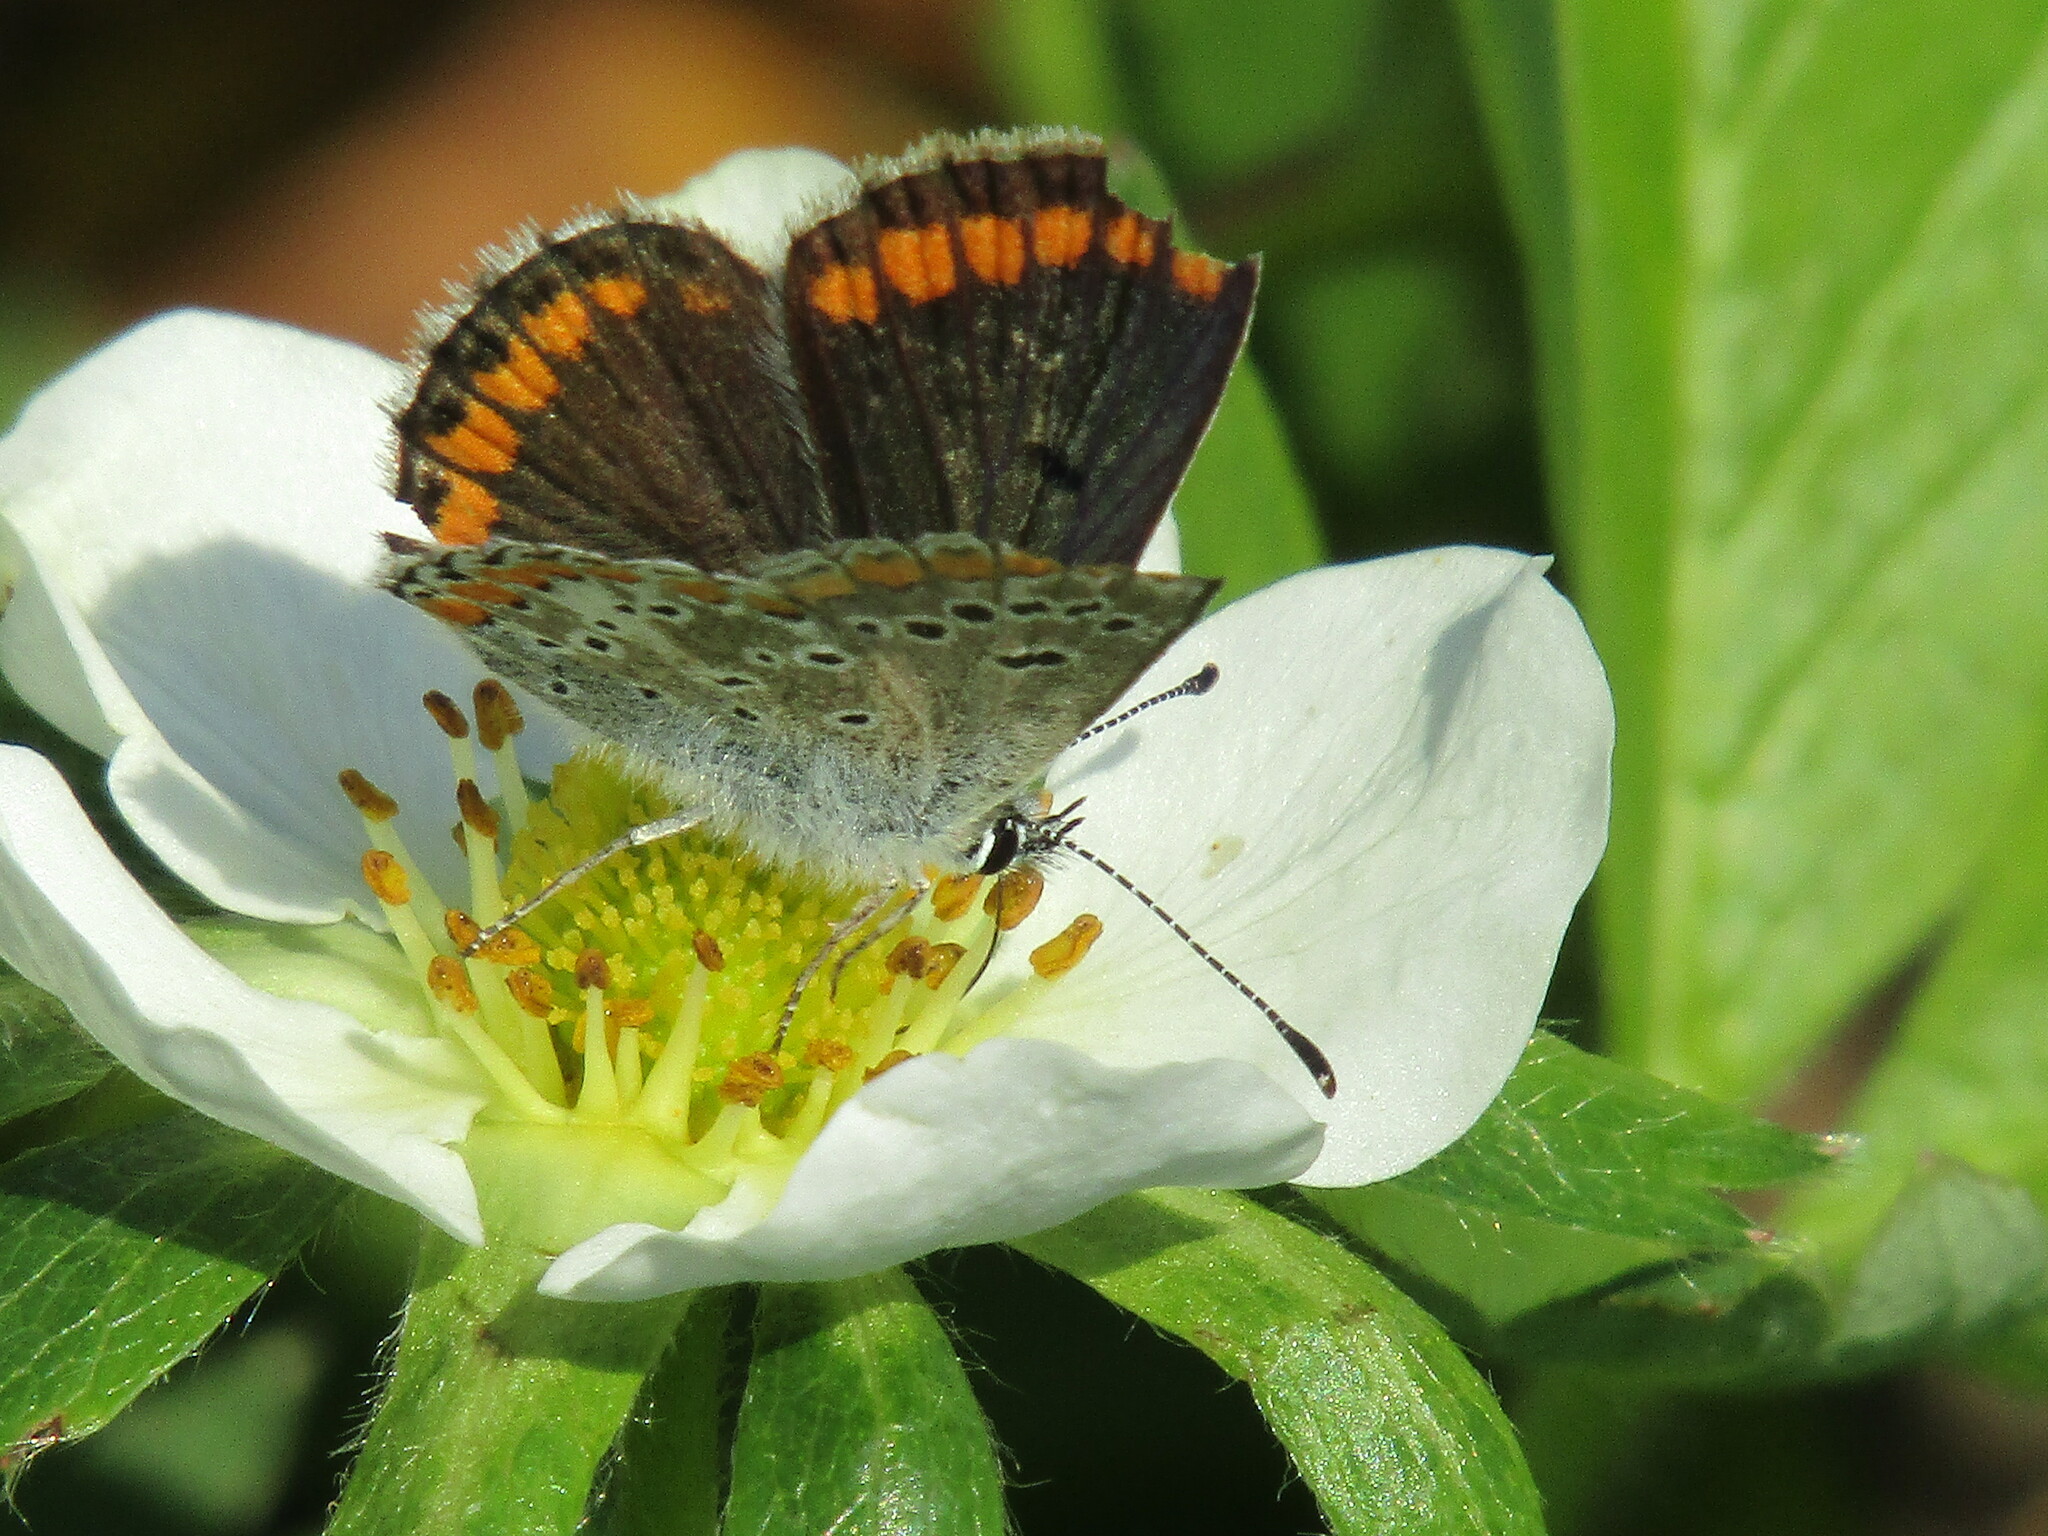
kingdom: Animalia
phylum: Arthropoda
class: Insecta
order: Lepidoptera
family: Lycaenidae
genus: Aricia
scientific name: Aricia agestis
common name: Brown argus
